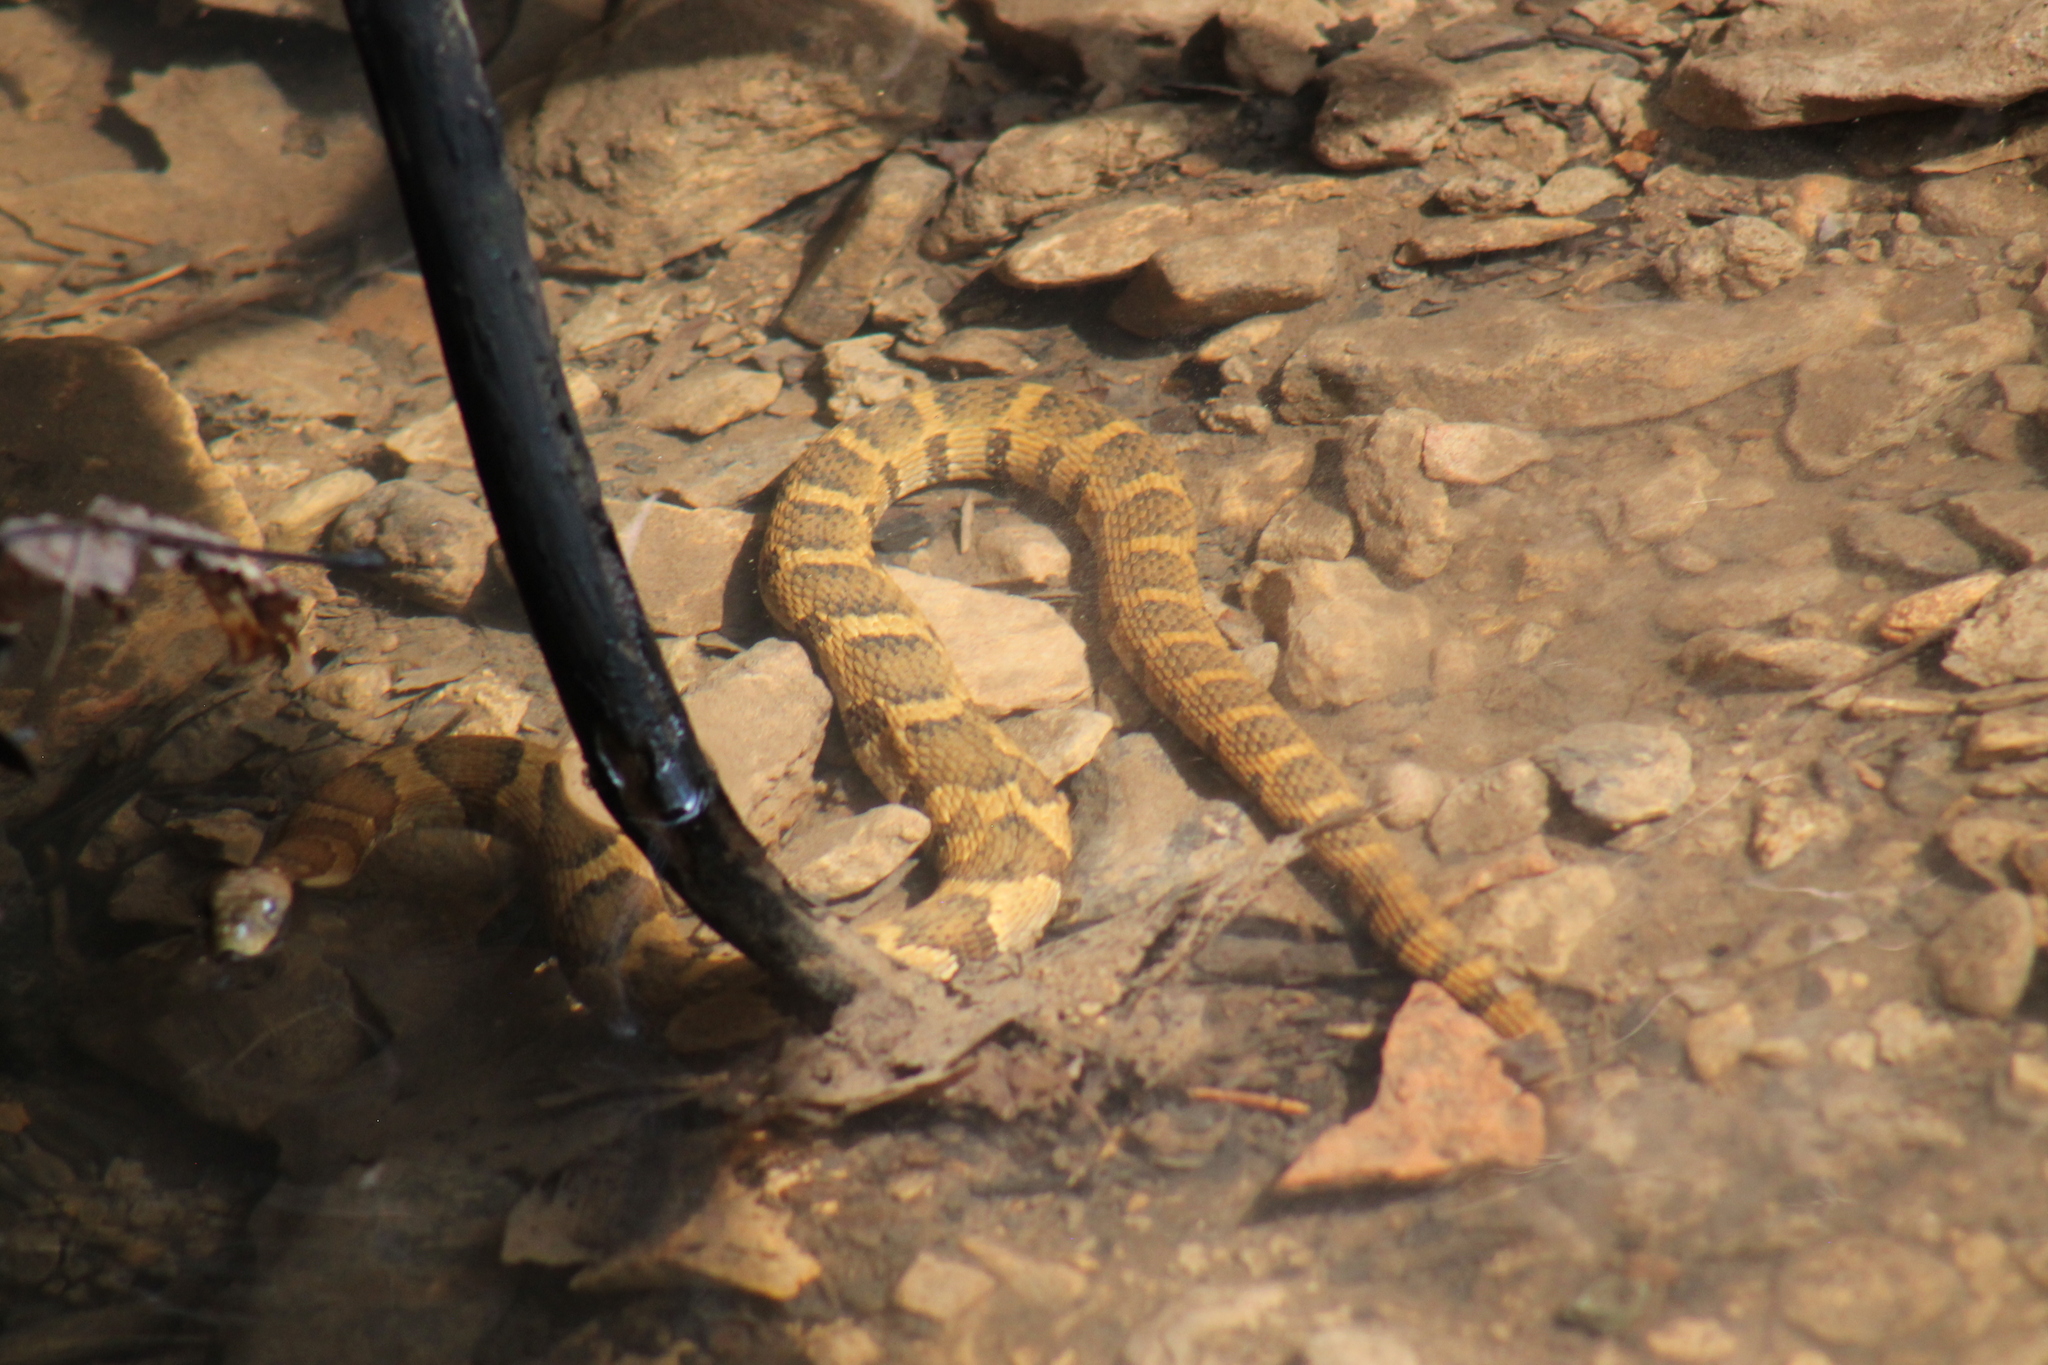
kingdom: Animalia
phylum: Chordata
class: Squamata
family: Colubridae
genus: Nerodia
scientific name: Nerodia sipedon
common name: Northern water snake
